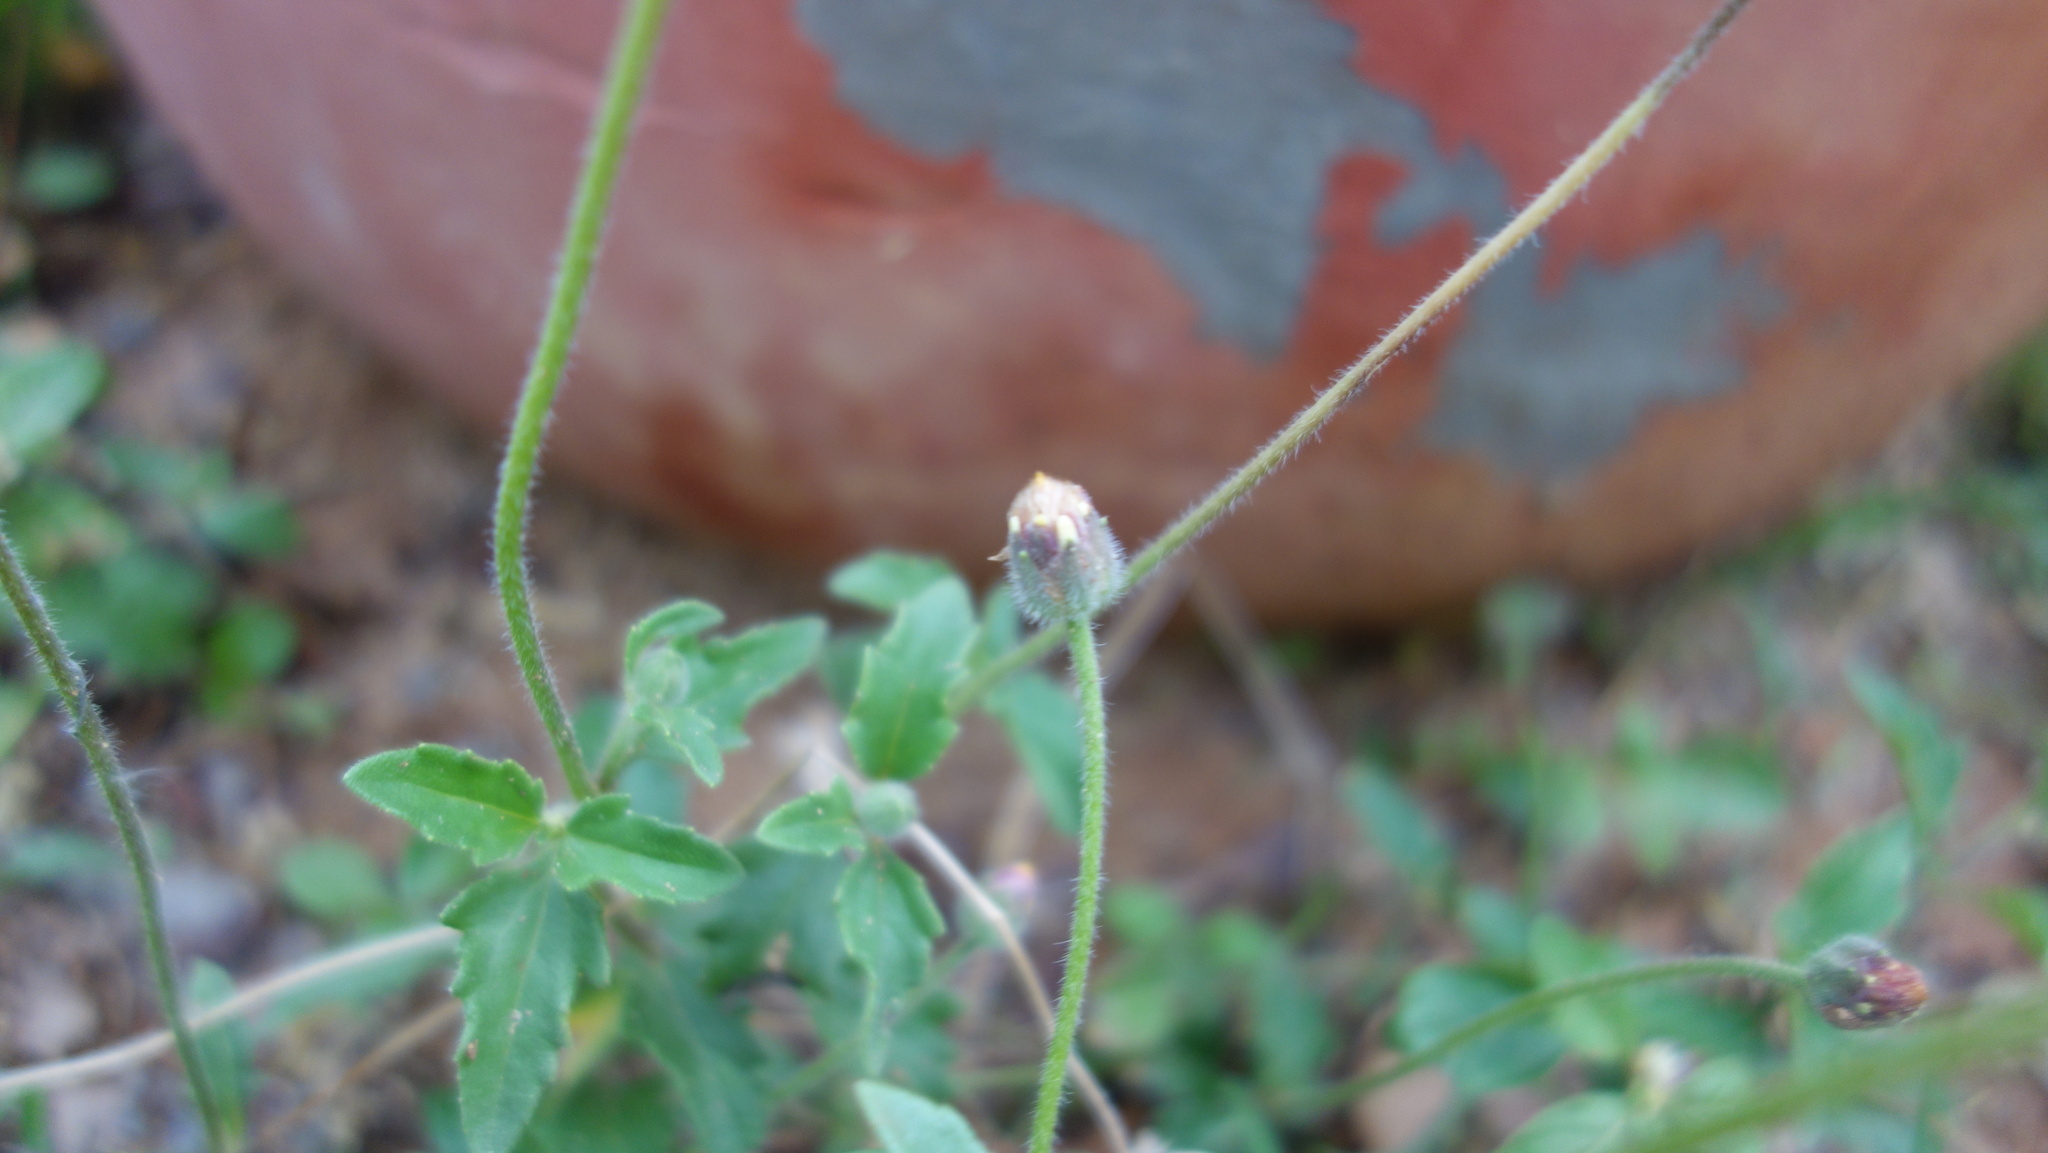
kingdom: Plantae
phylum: Tracheophyta
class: Magnoliopsida
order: Asterales
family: Asteraceae
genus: Tridax
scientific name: Tridax procumbens
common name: Coatbuttons
